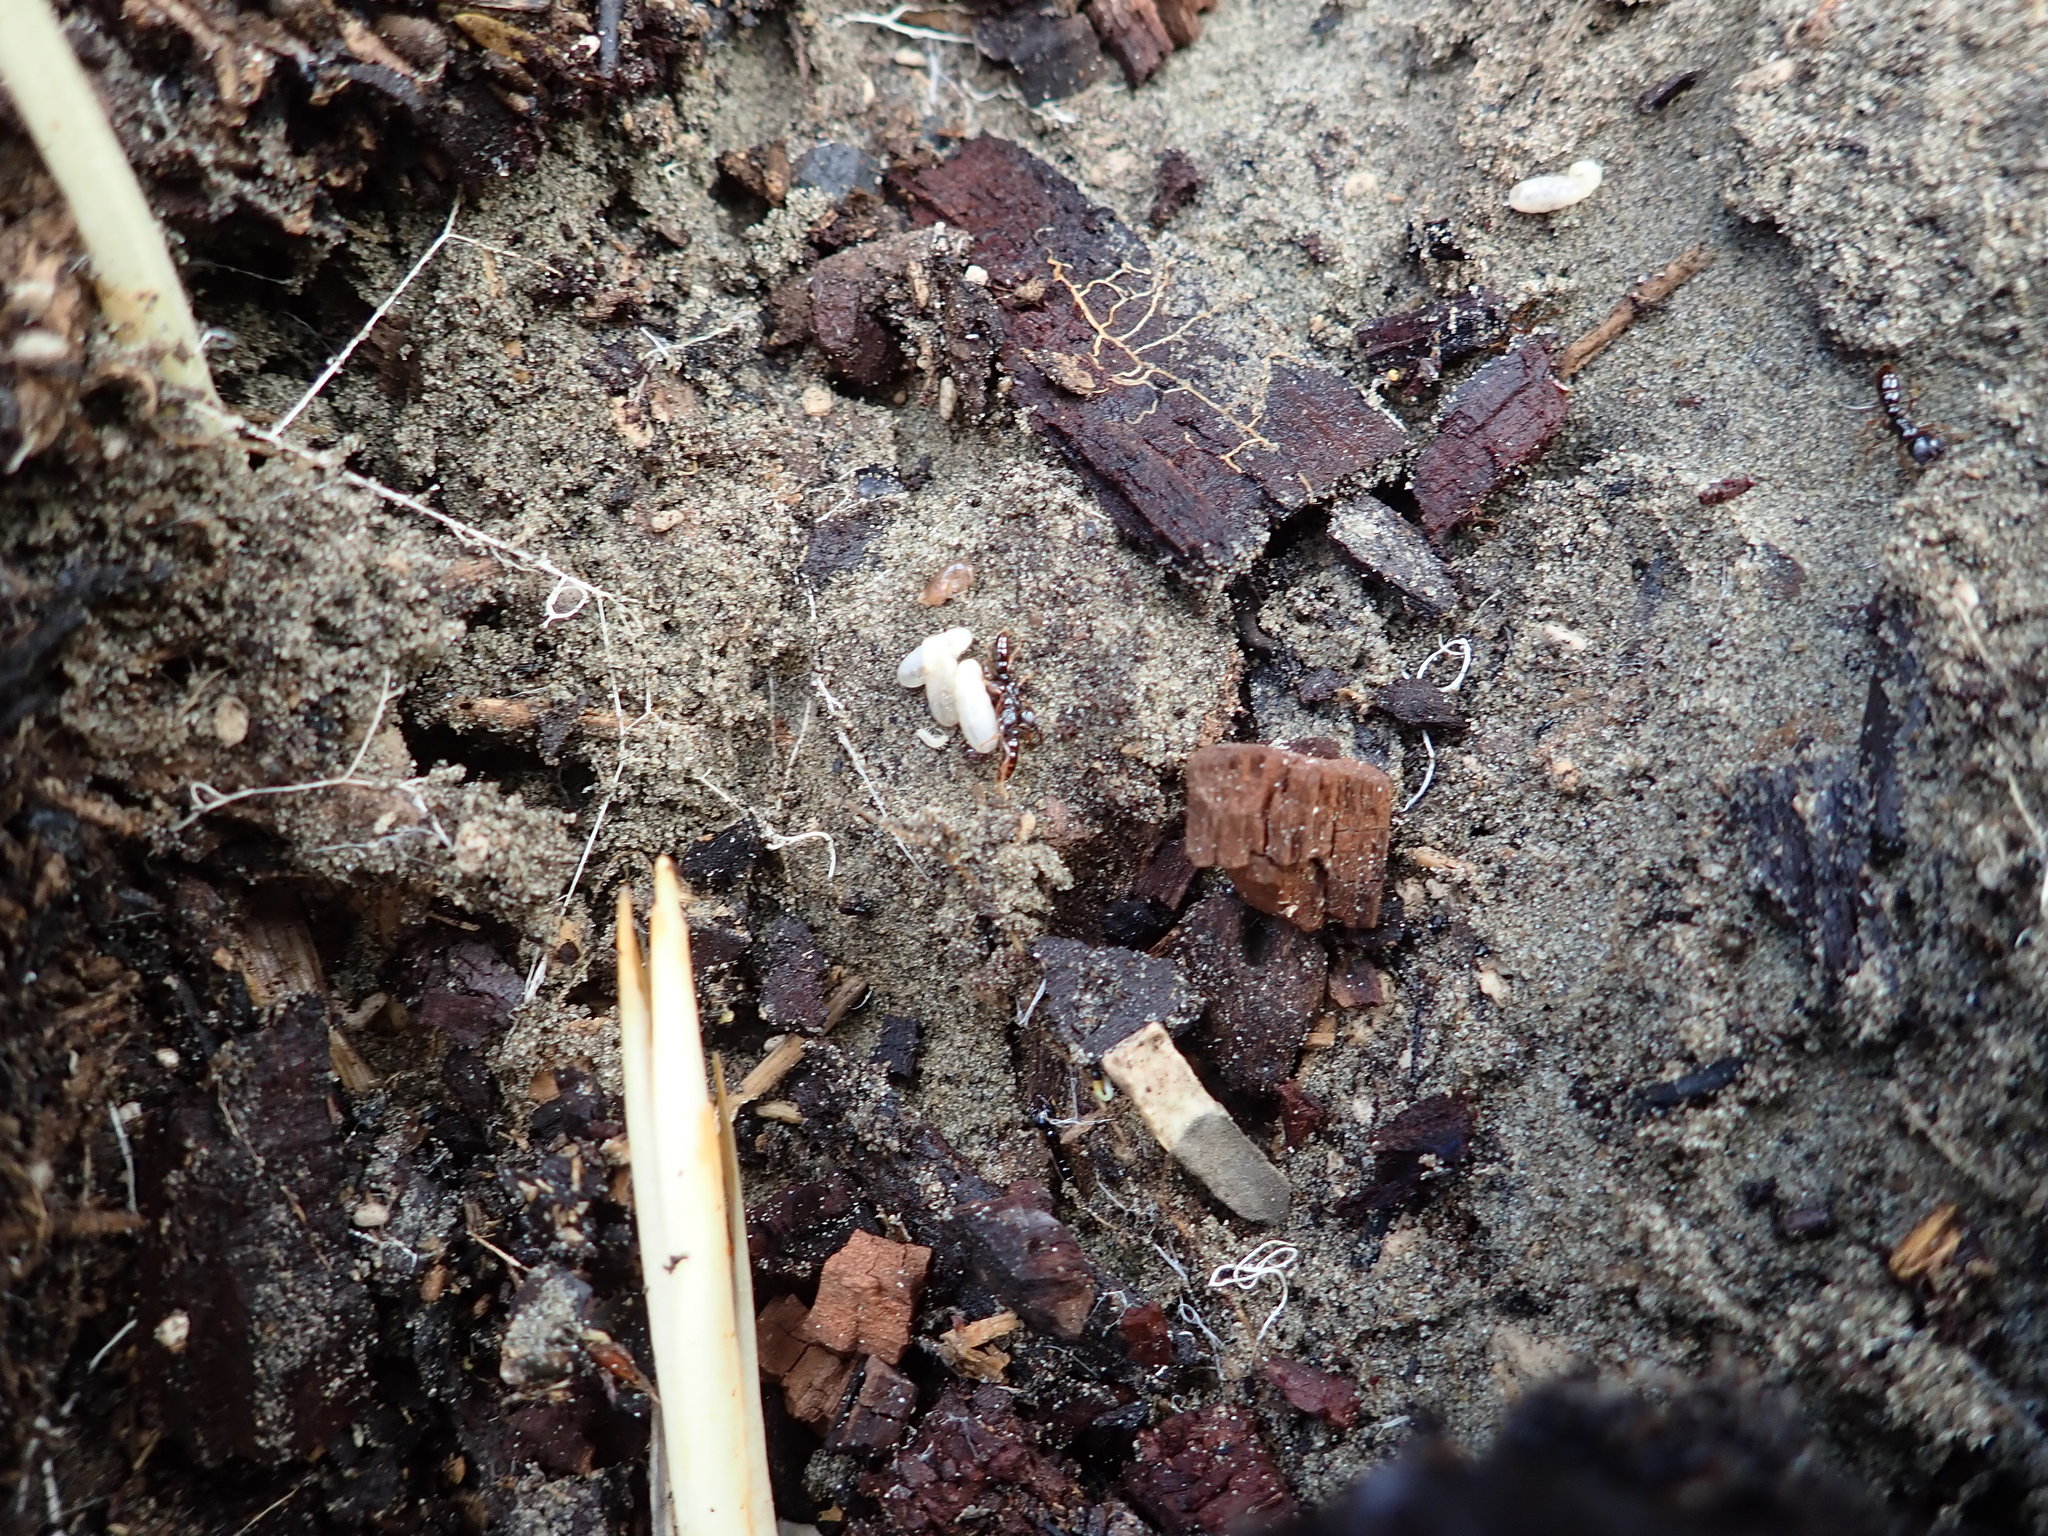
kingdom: Animalia
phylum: Arthropoda
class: Insecta
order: Hymenoptera
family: Formicidae
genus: Amblyopone
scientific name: Amblyopone australis
